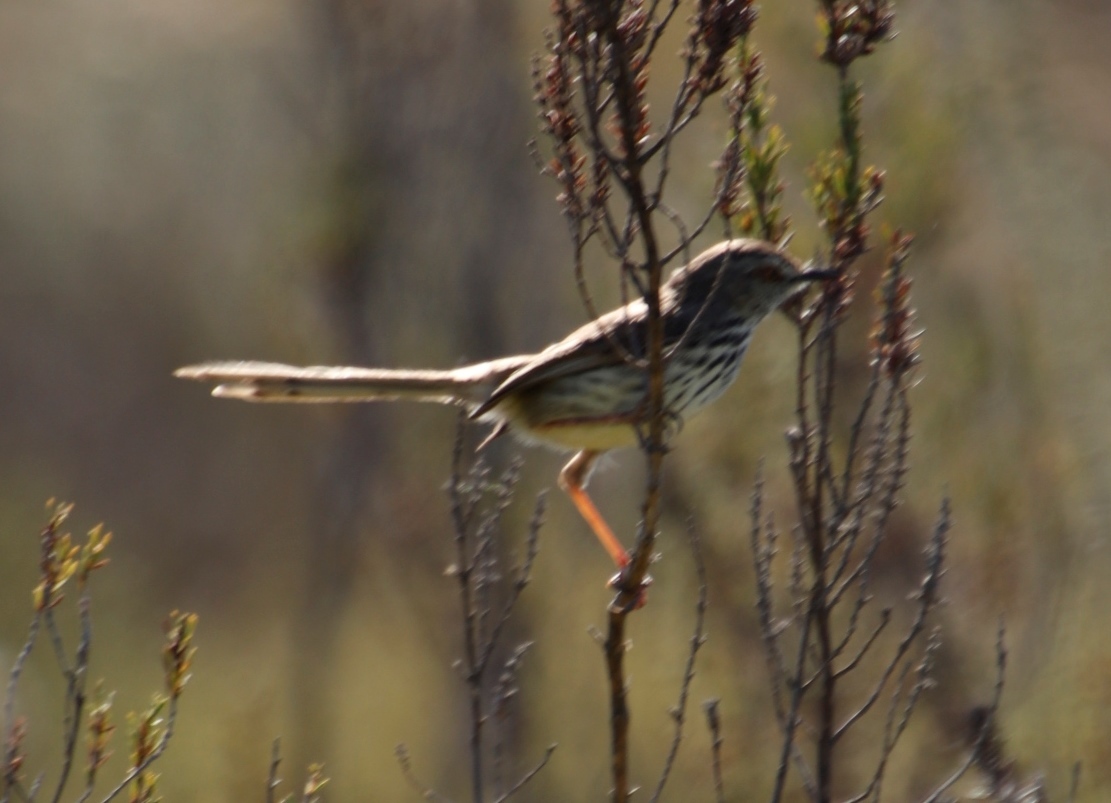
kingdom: Animalia
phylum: Chordata
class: Aves
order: Passeriformes
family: Cisticolidae
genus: Prinia
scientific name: Prinia maculosa
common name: Karoo prinia
